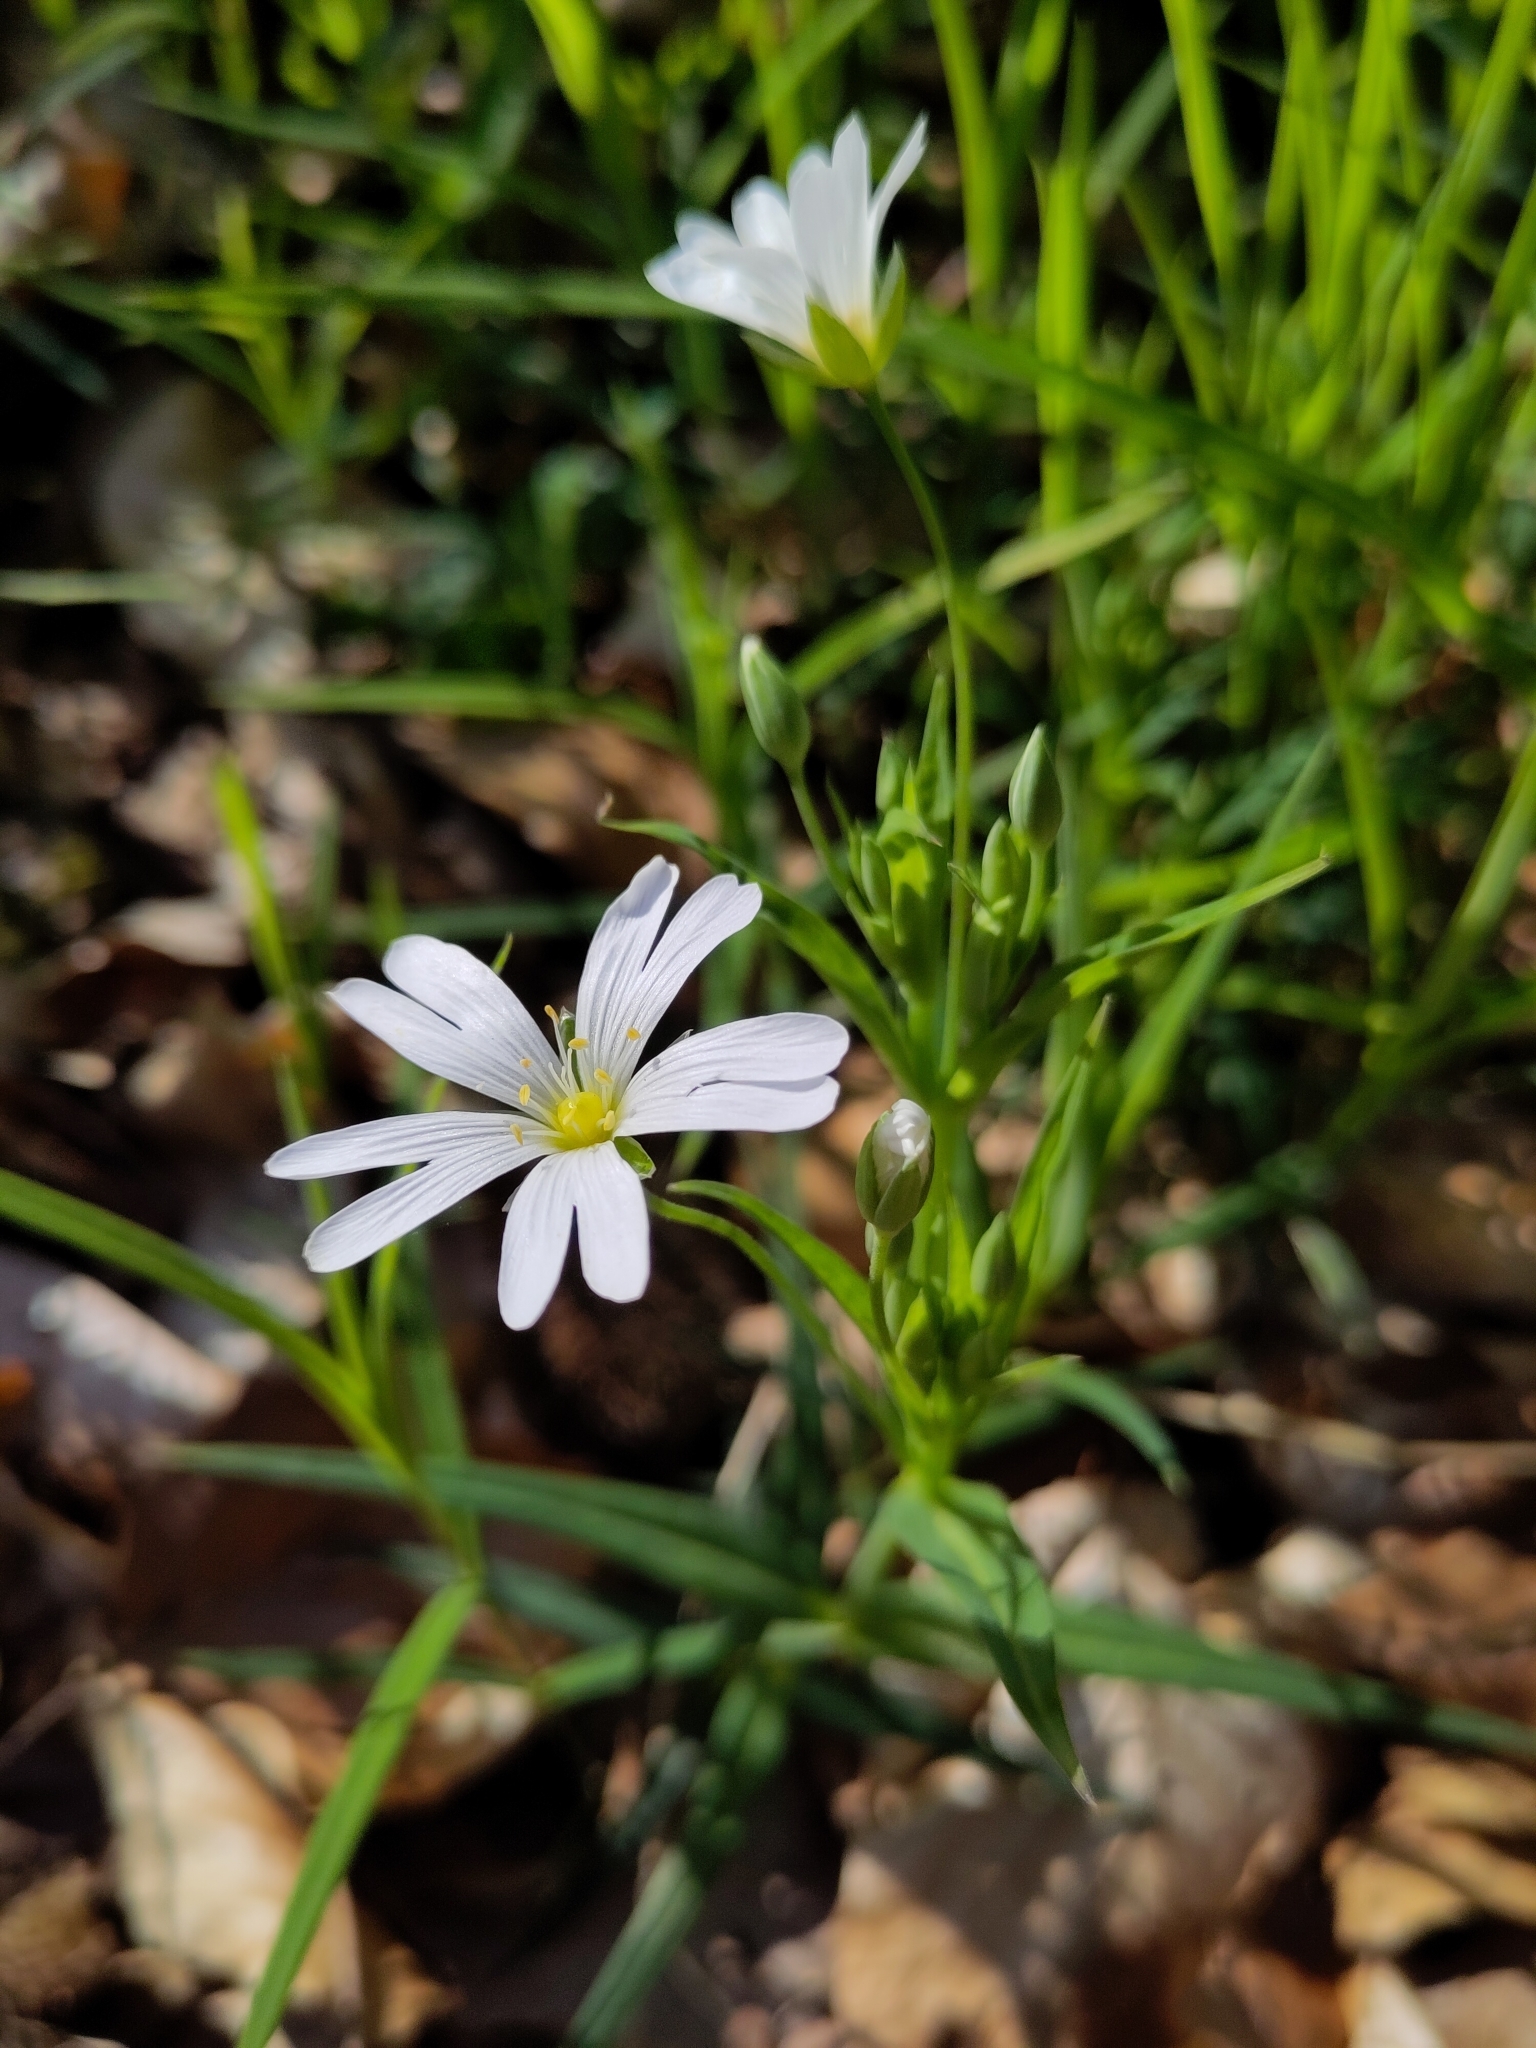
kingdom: Plantae
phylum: Tracheophyta
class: Magnoliopsida
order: Caryophyllales
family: Caryophyllaceae
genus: Rabelera
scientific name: Rabelera holostea
